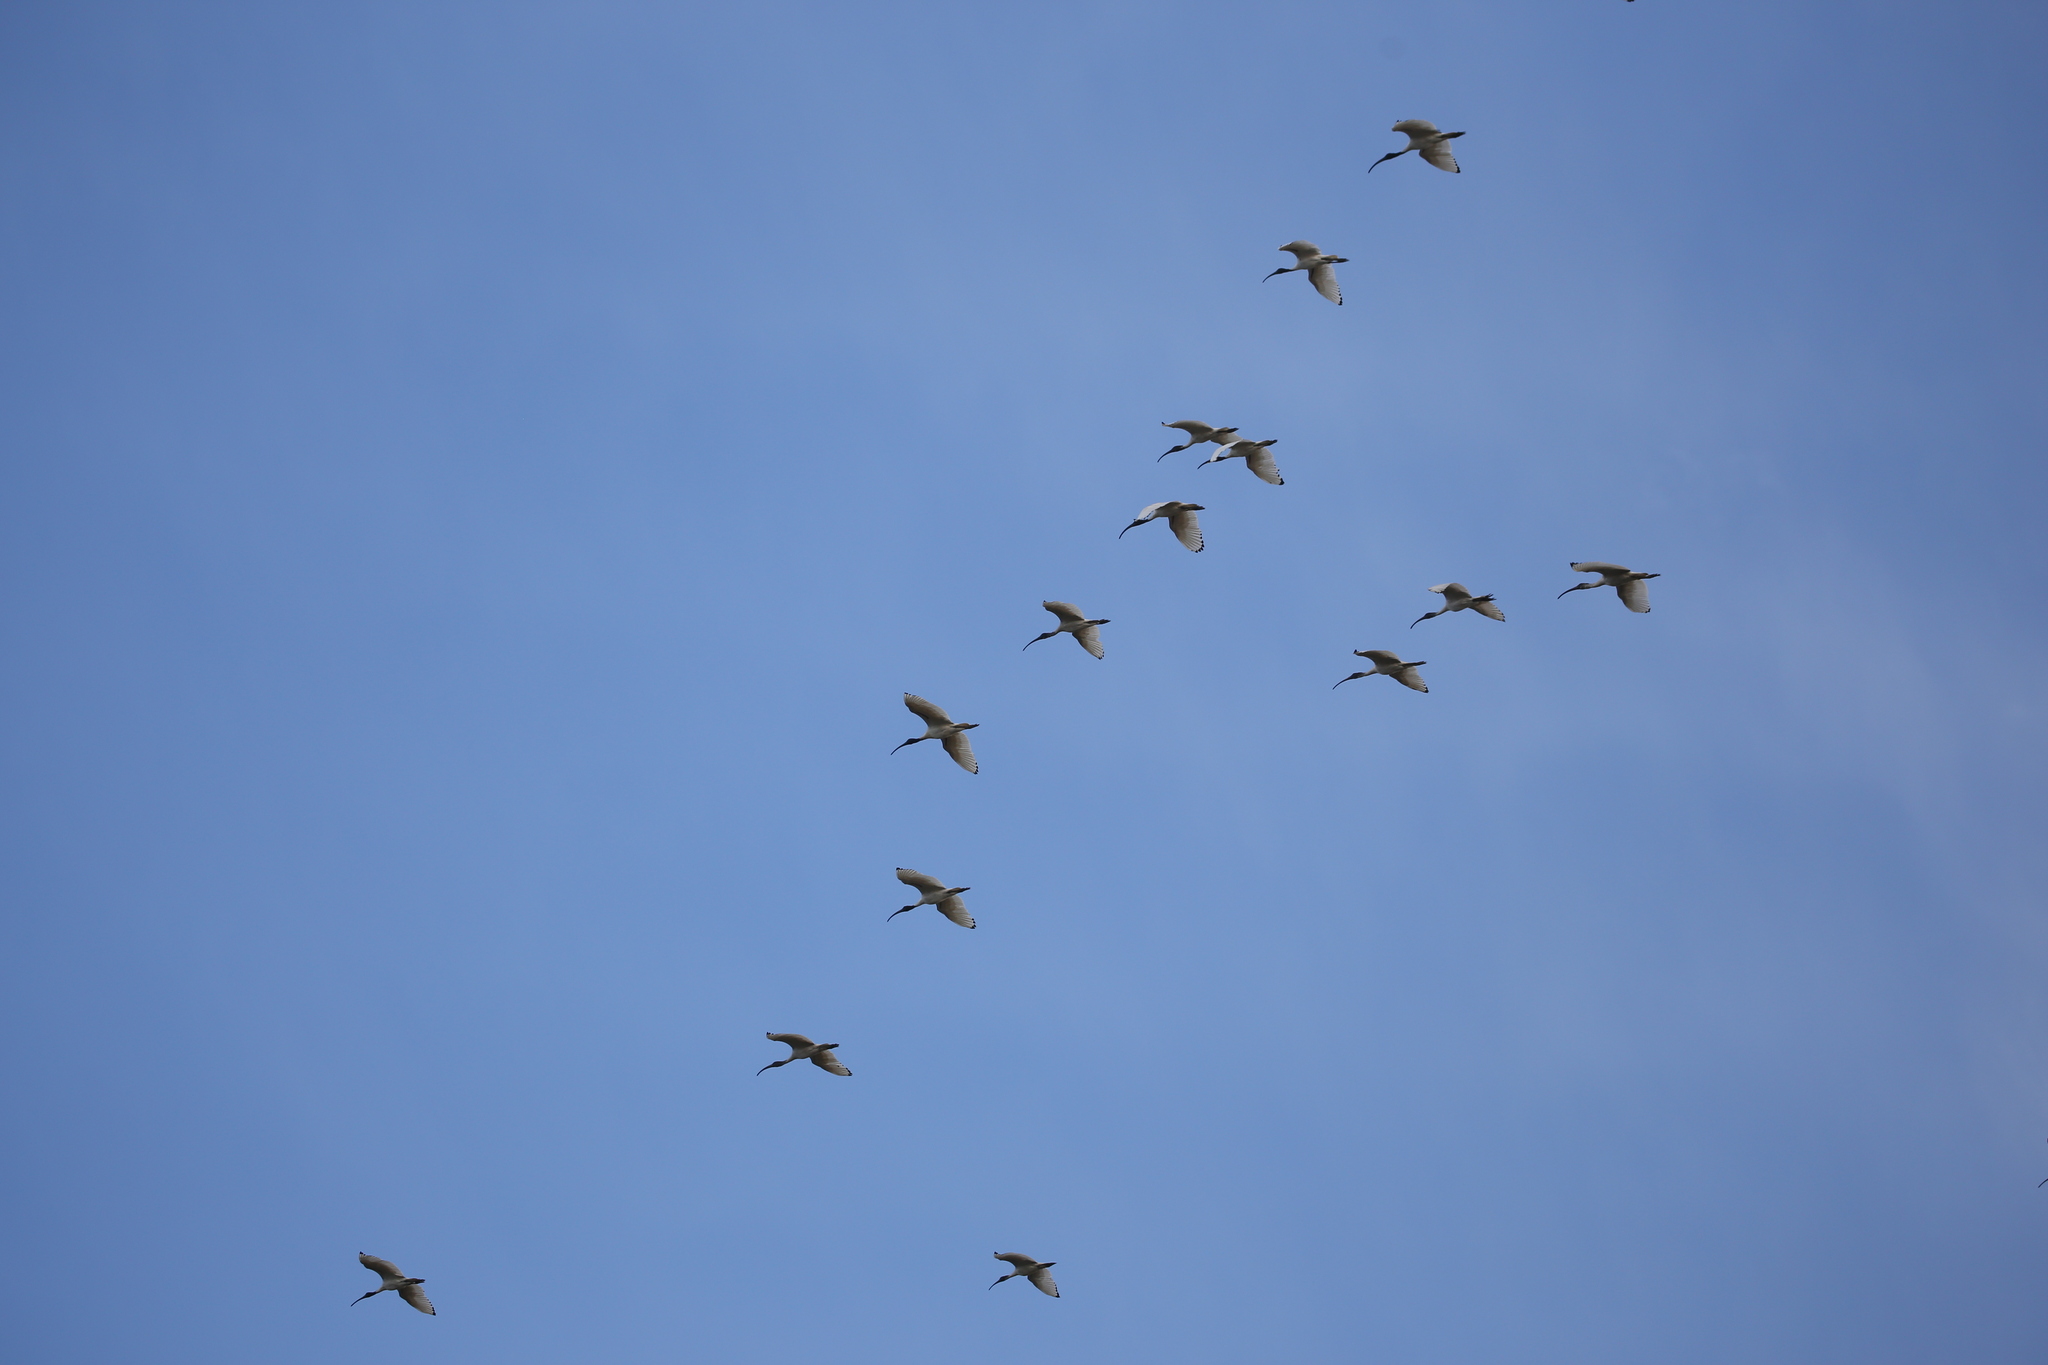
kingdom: Animalia
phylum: Chordata
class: Aves
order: Pelecaniformes
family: Threskiornithidae
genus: Threskiornis
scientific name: Threskiornis molucca
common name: Australian white ibis
